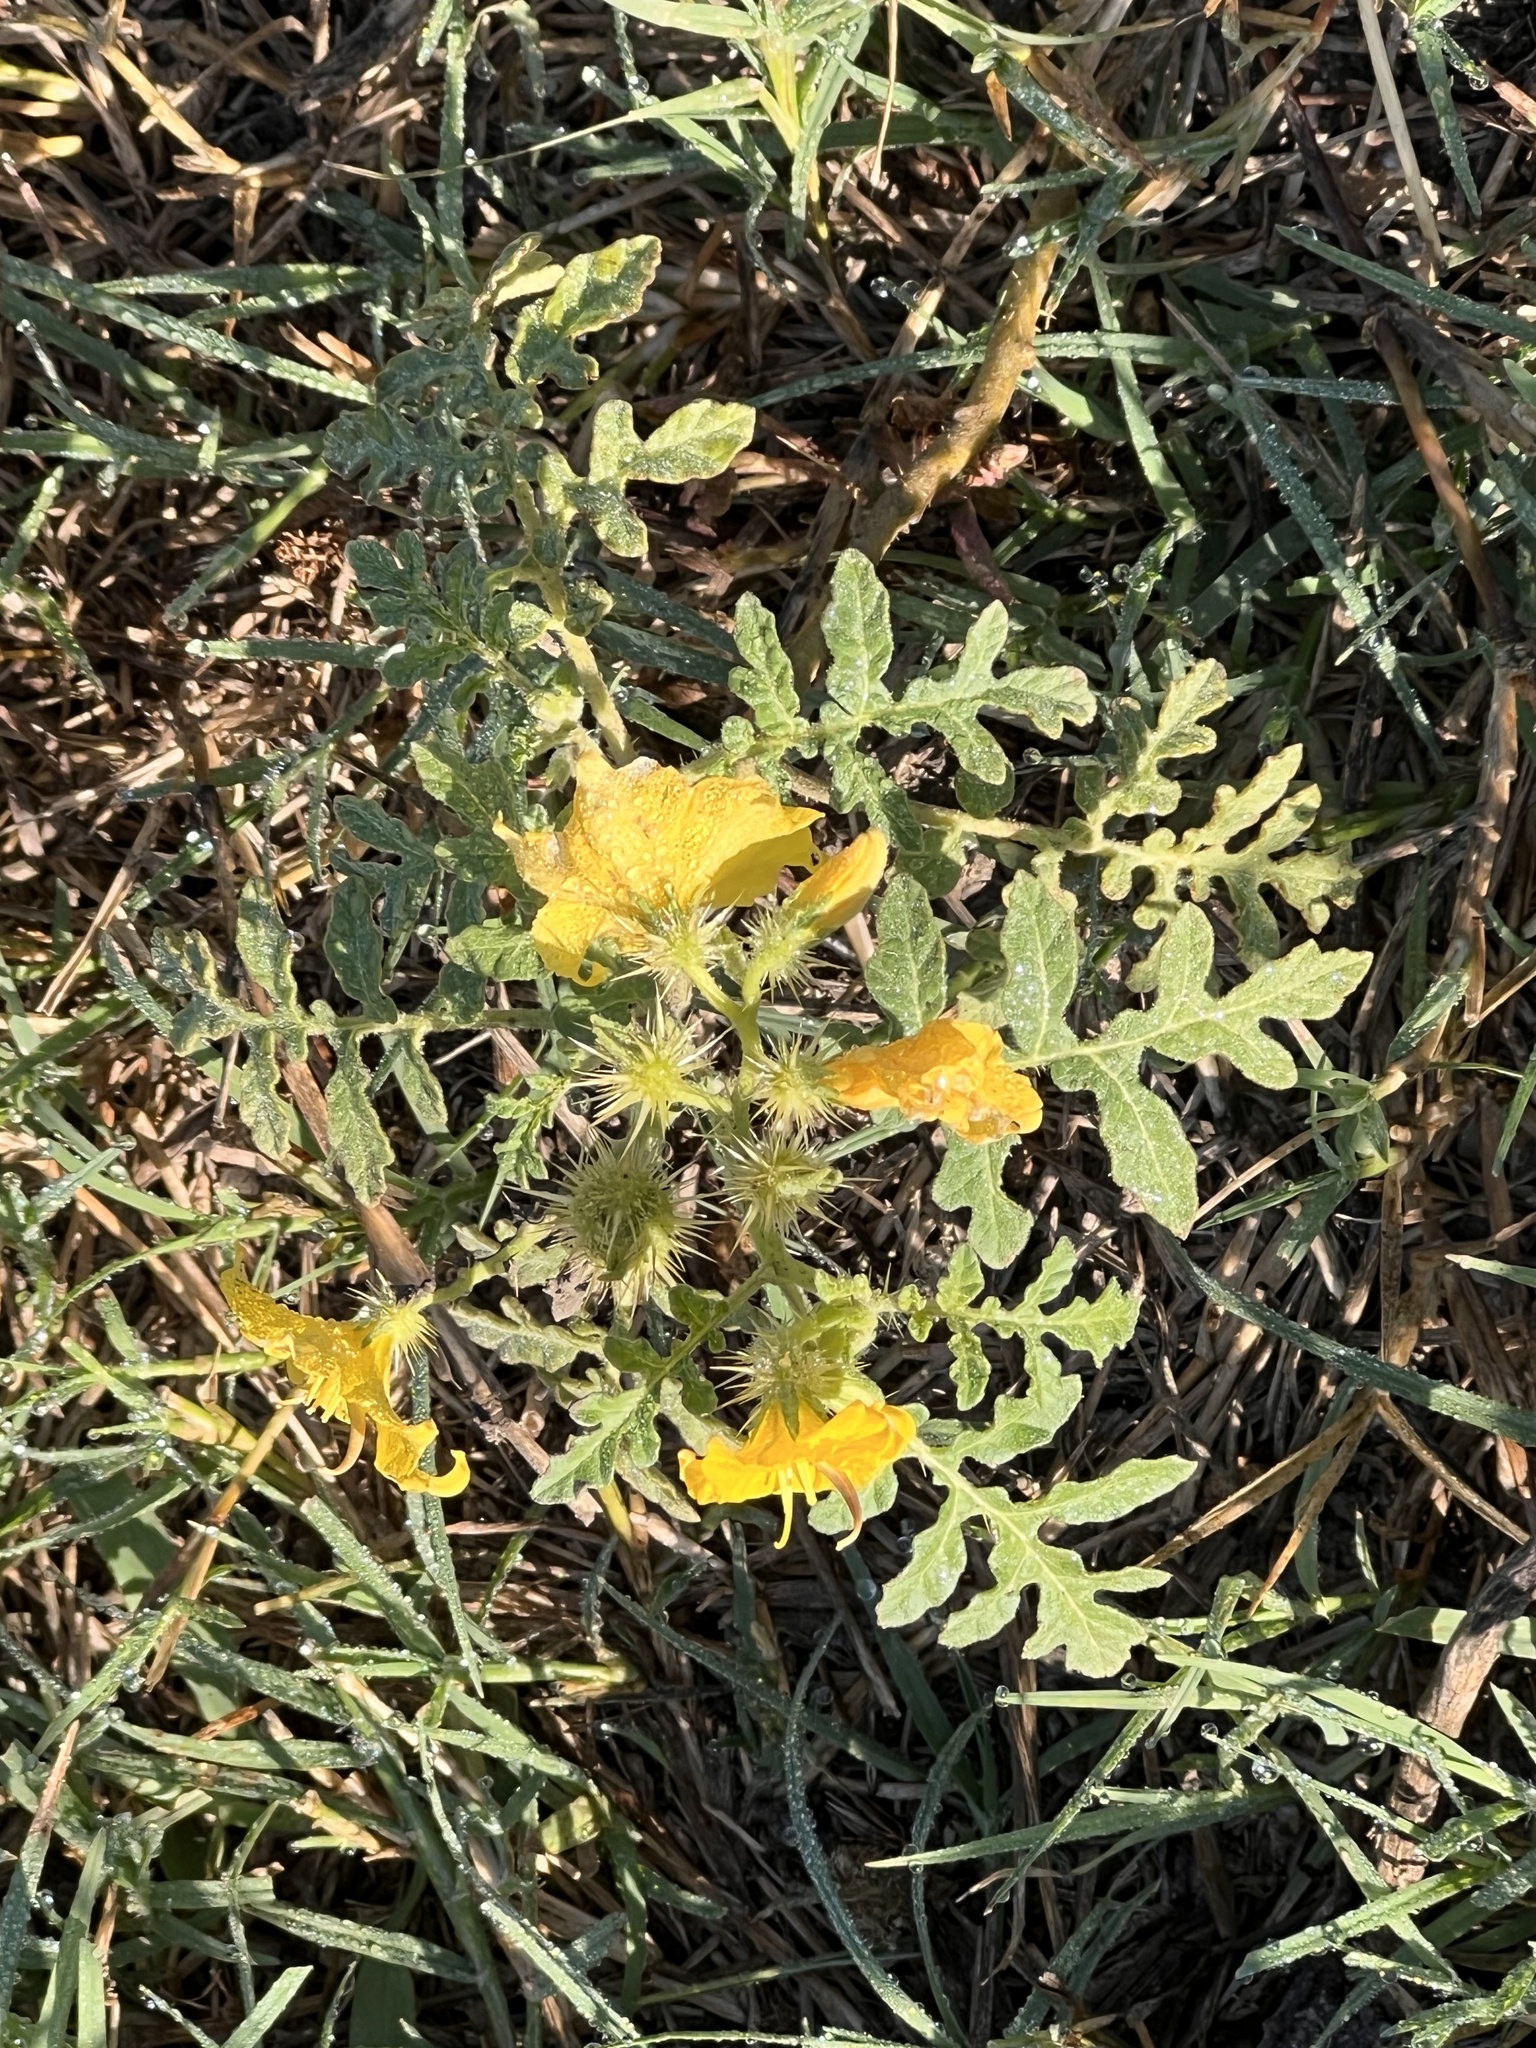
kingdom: Plantae
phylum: Tracheophyta
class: Magnoliopsida
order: Solanales
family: Solanaceae
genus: Solanum
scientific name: Solanum angustifolium
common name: Buffalobur nightshade
